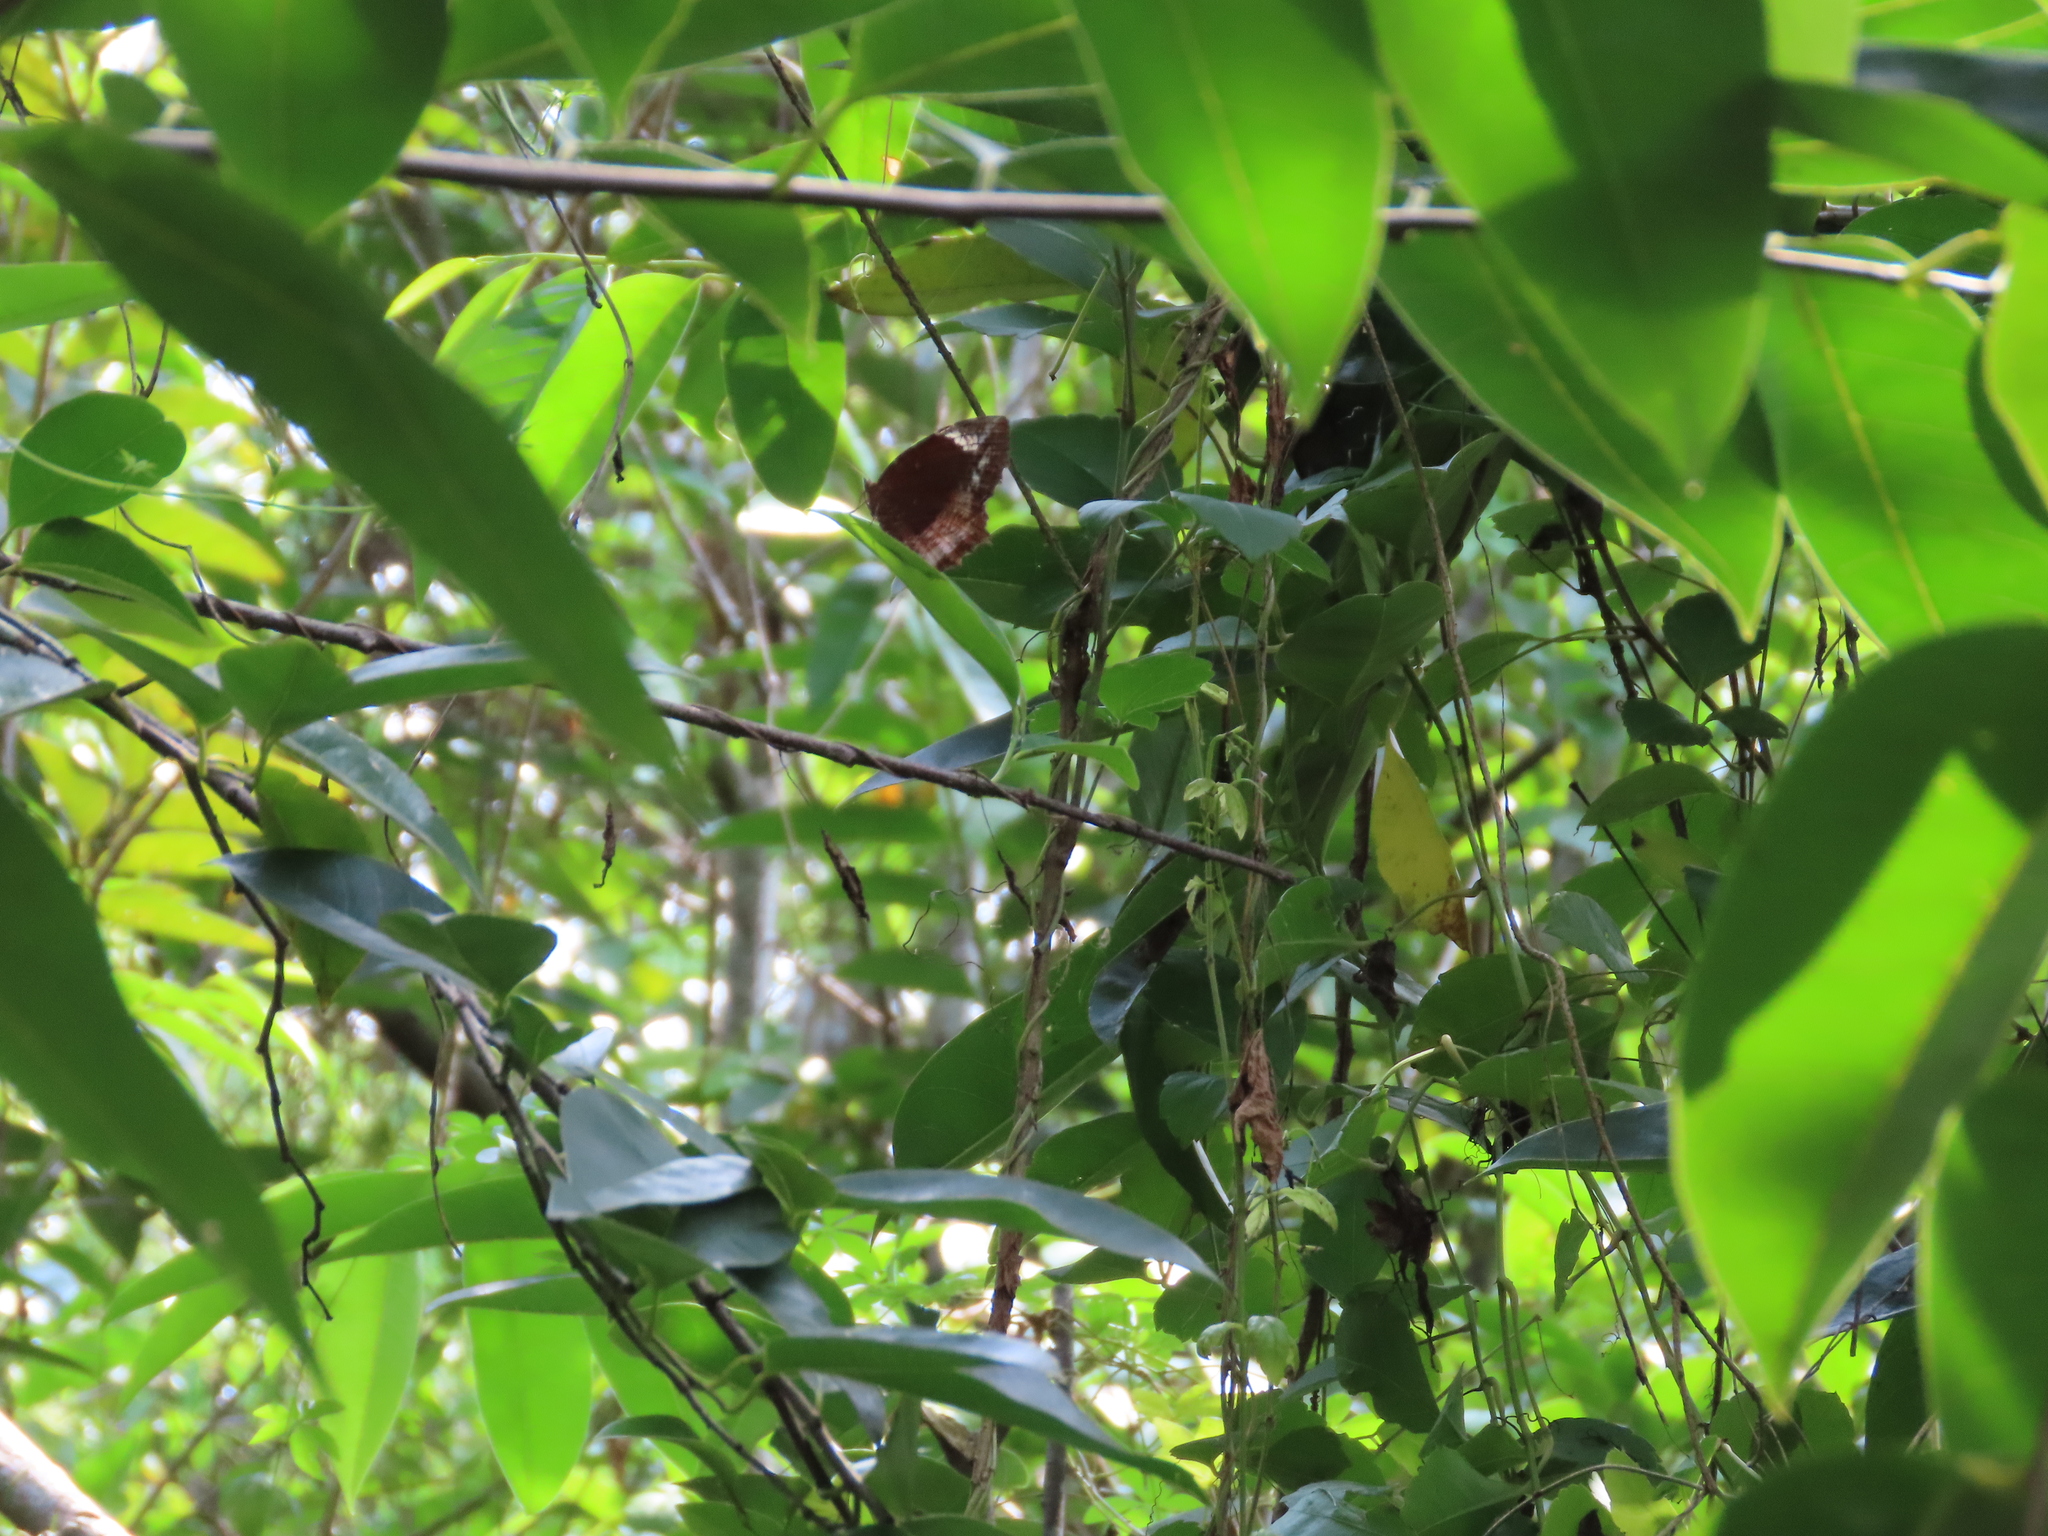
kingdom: Animalia
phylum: Arthropoda
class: Insecta
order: Lepidoptera
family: Nymphalidae
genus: Elymnias
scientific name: Elymnias caudata
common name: Tailed palmfly
